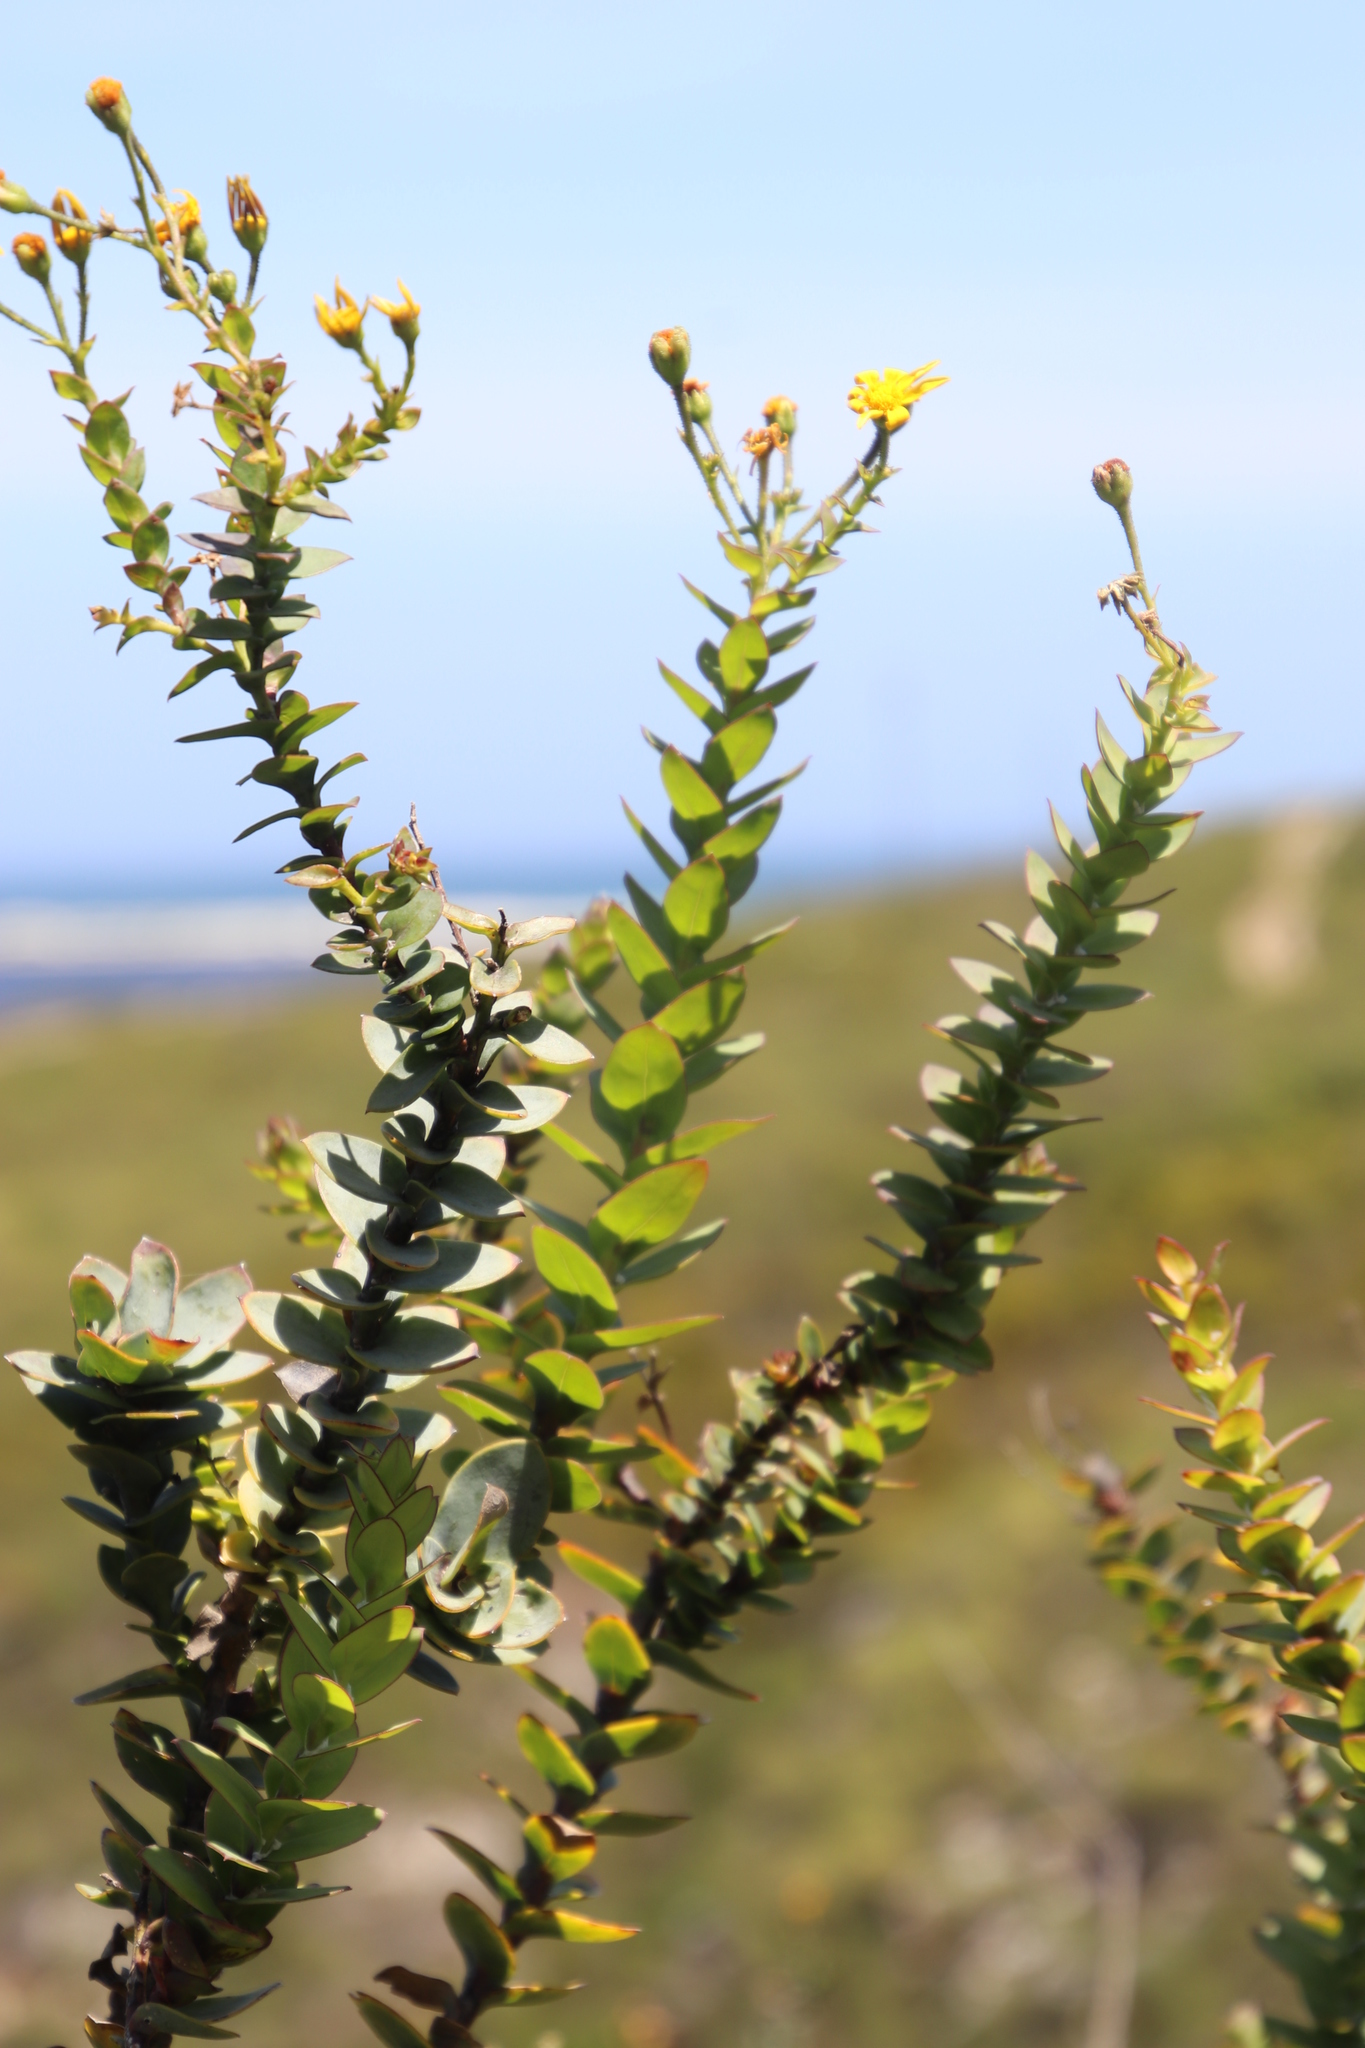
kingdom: Plantae
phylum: Tracheophyta
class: Magnoliopsida
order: Asterales
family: Asteraceae
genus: Osteospermum
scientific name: Osteospermum rotundifolium
